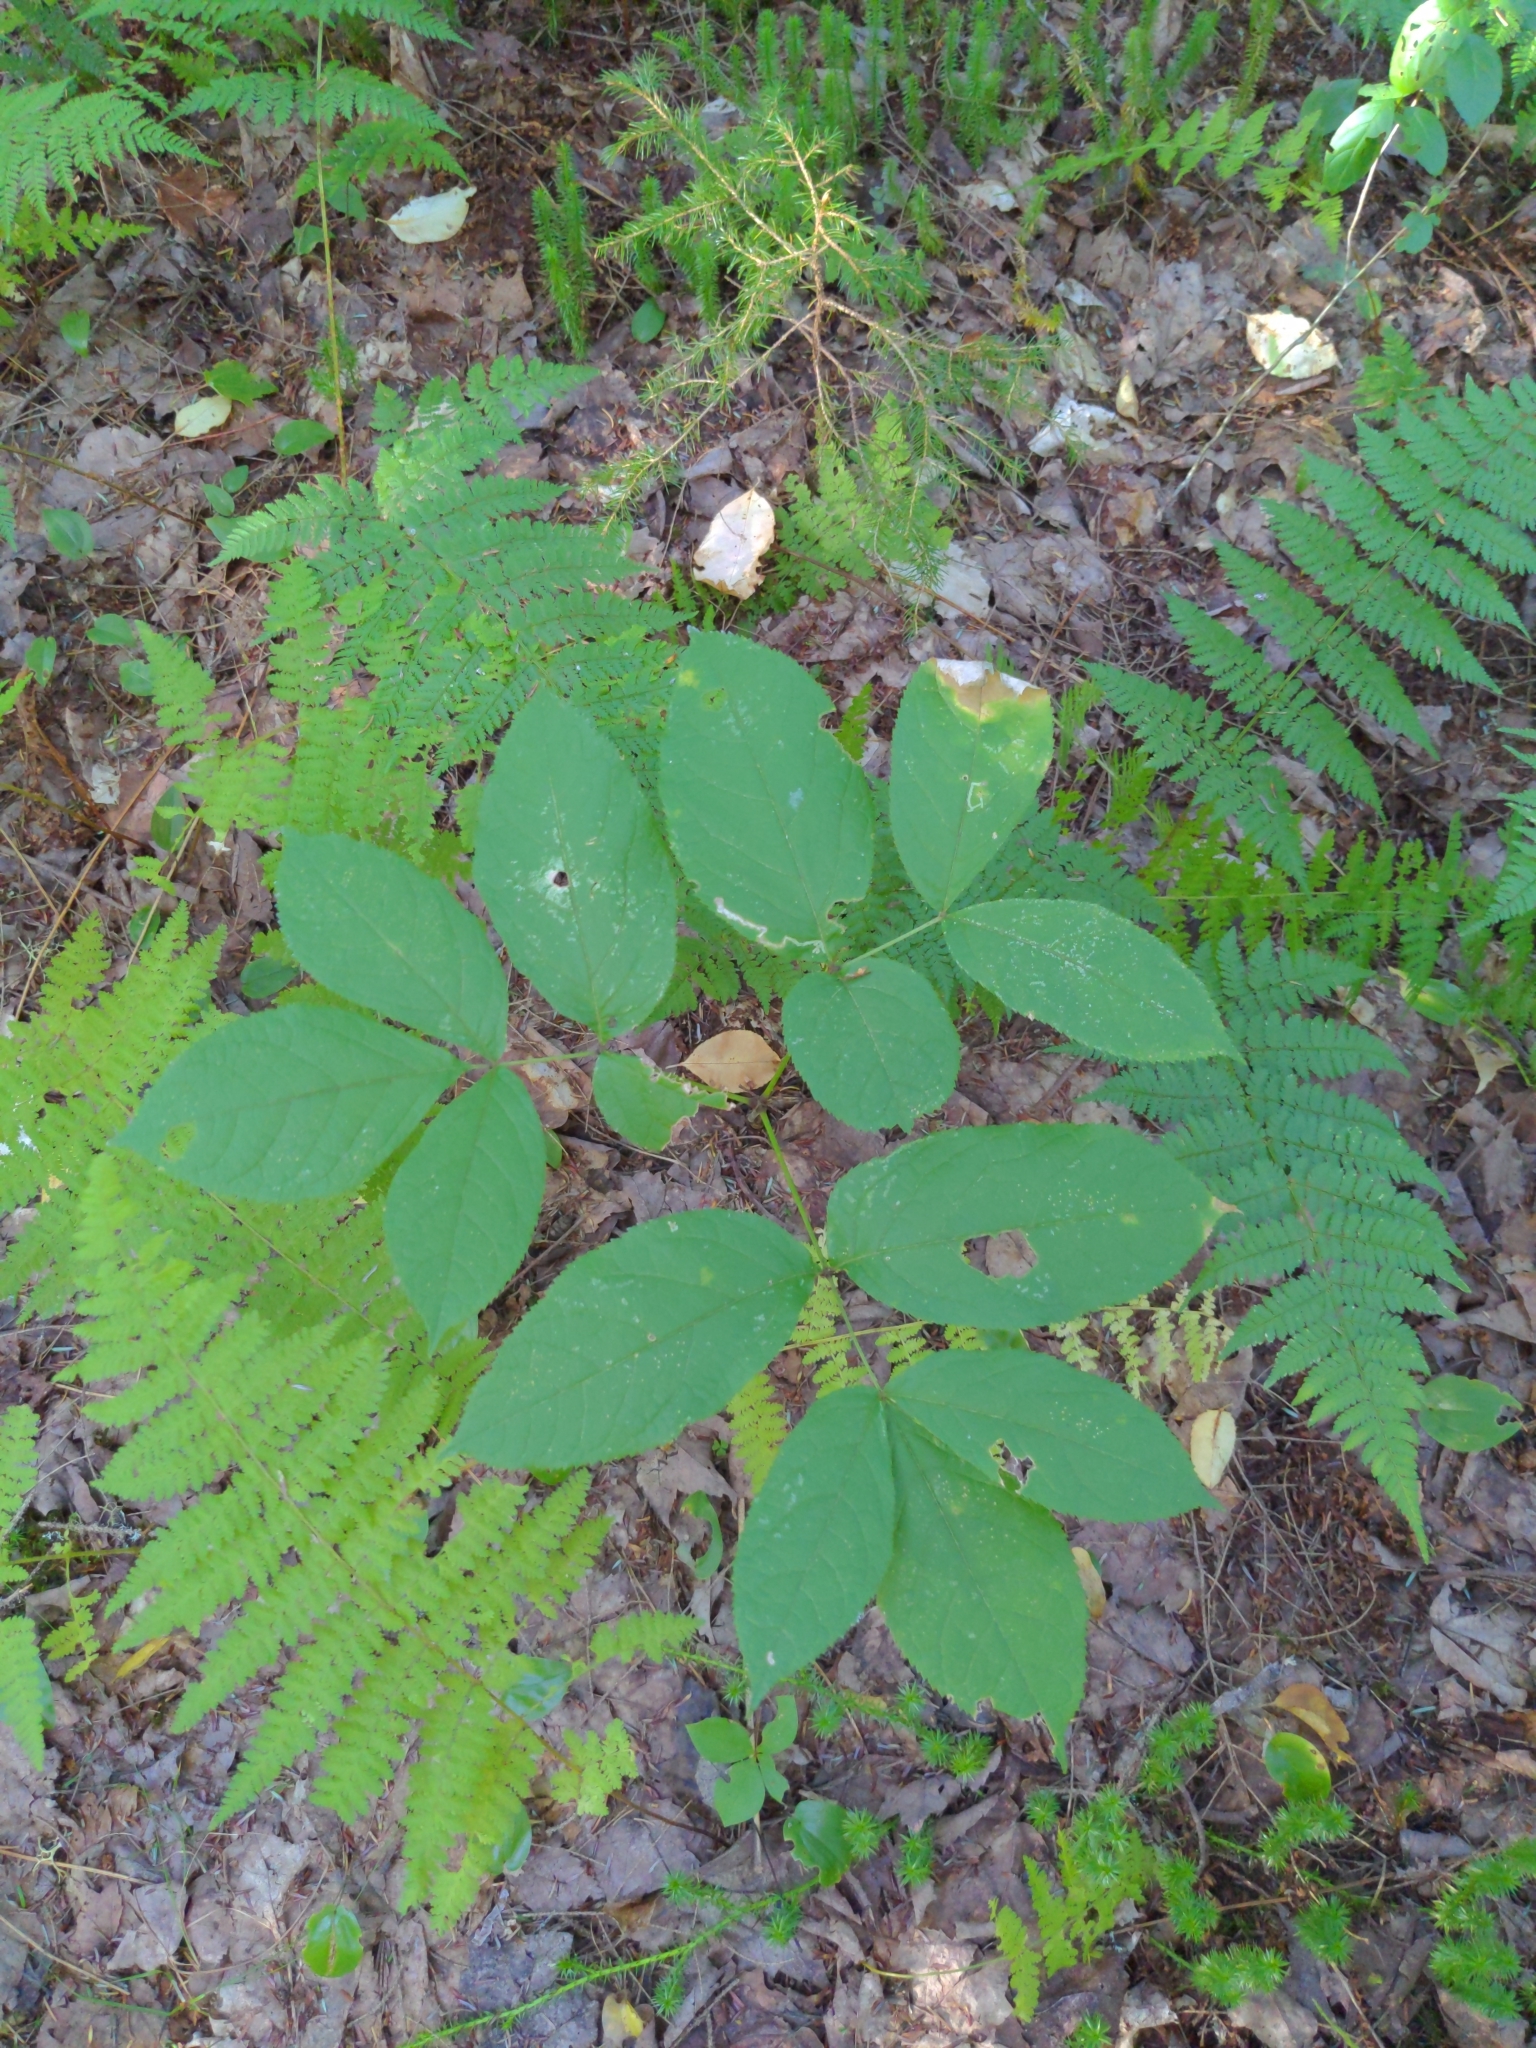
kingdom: Plantae
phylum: Tracheophyta
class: Magnoliopsida
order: Apiales
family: Araliaceae
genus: Aralia
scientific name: Aralia nudicaulis
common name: Wild sarsaparilla
